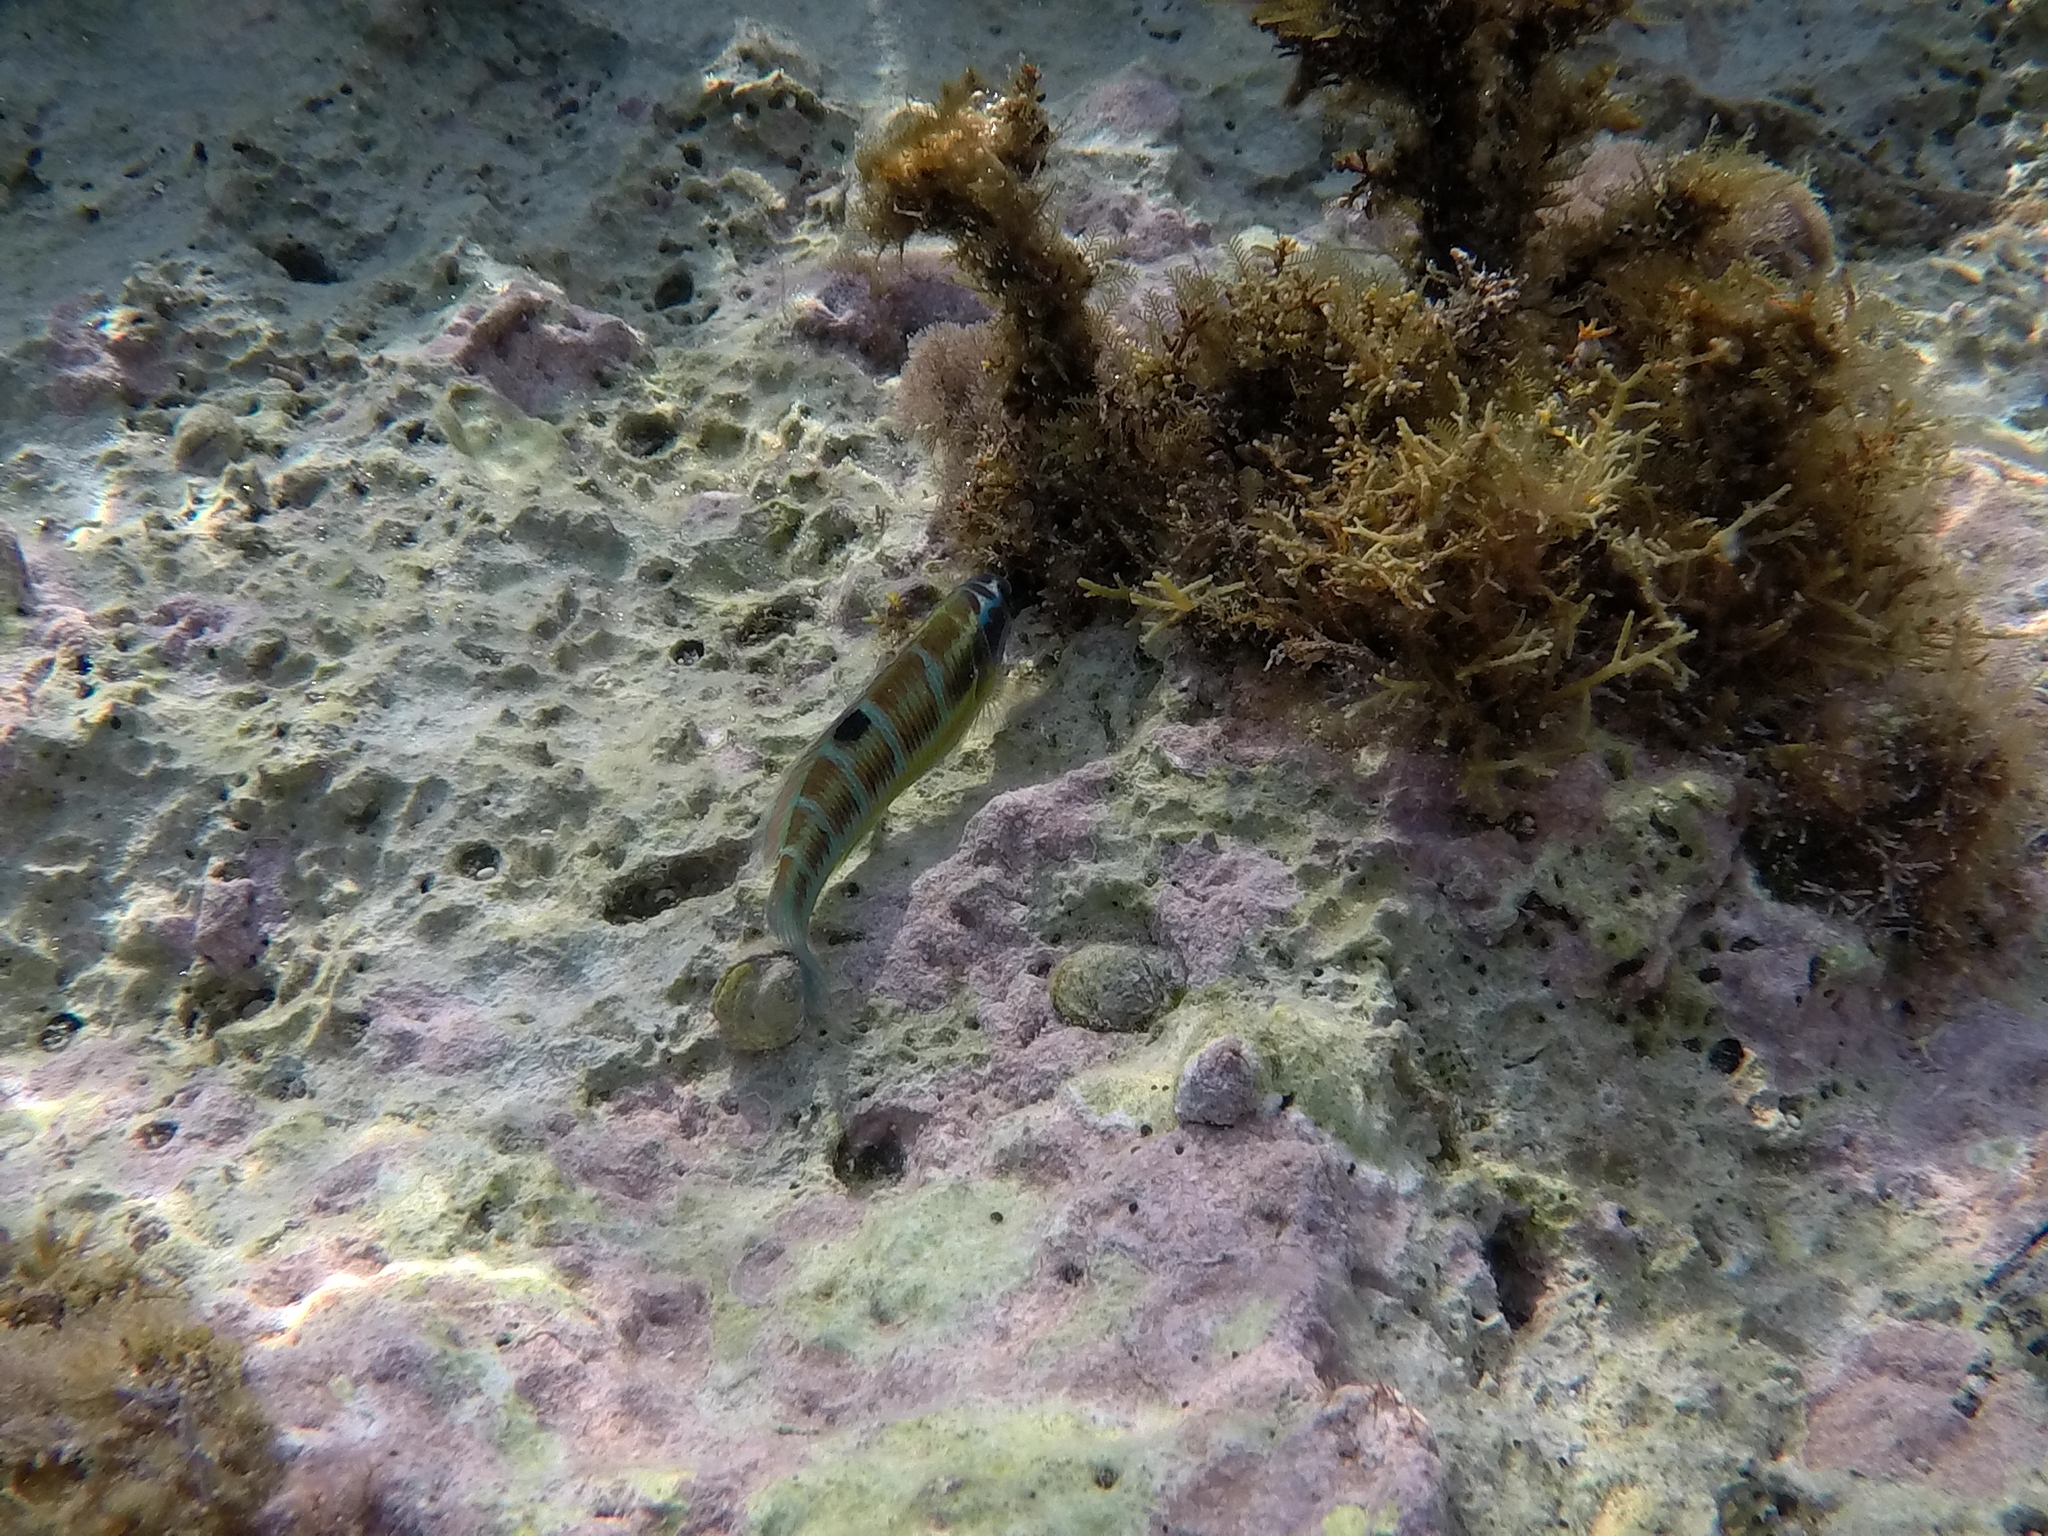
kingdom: Animalia
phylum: Chordata
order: Perciformes
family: Labridae
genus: Thalassoma
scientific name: Thalassoma pavo
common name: Ornate wrasse
